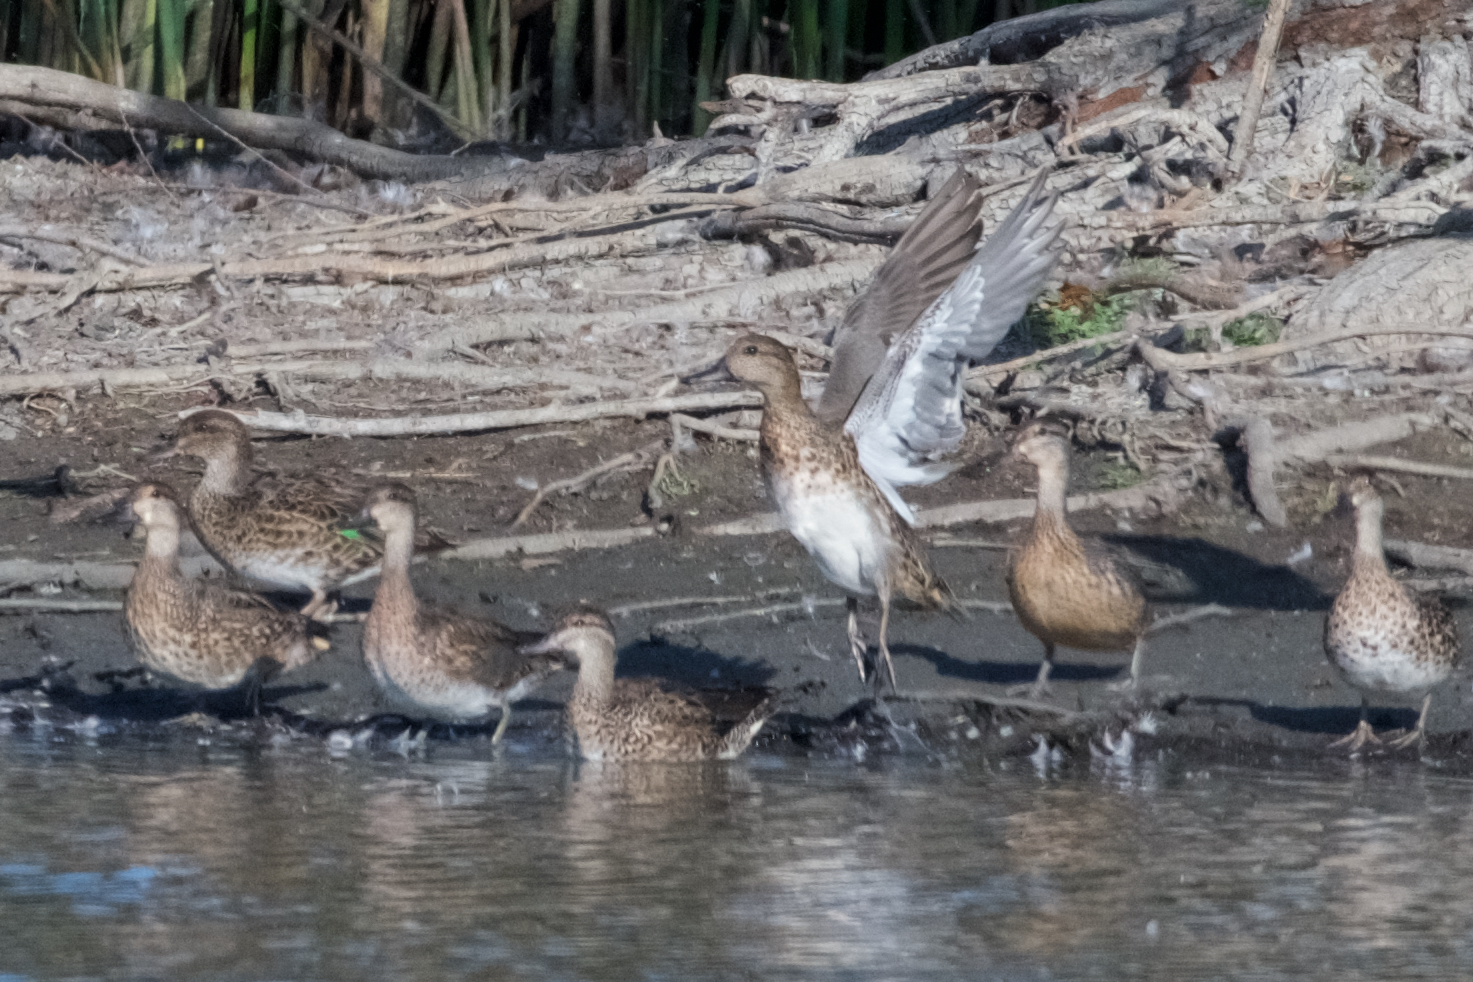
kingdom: Animalia
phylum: Chordata
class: Aves
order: Anseriformes
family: Anatidae
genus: Anas
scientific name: Anas crecca
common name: Eurasian teal
